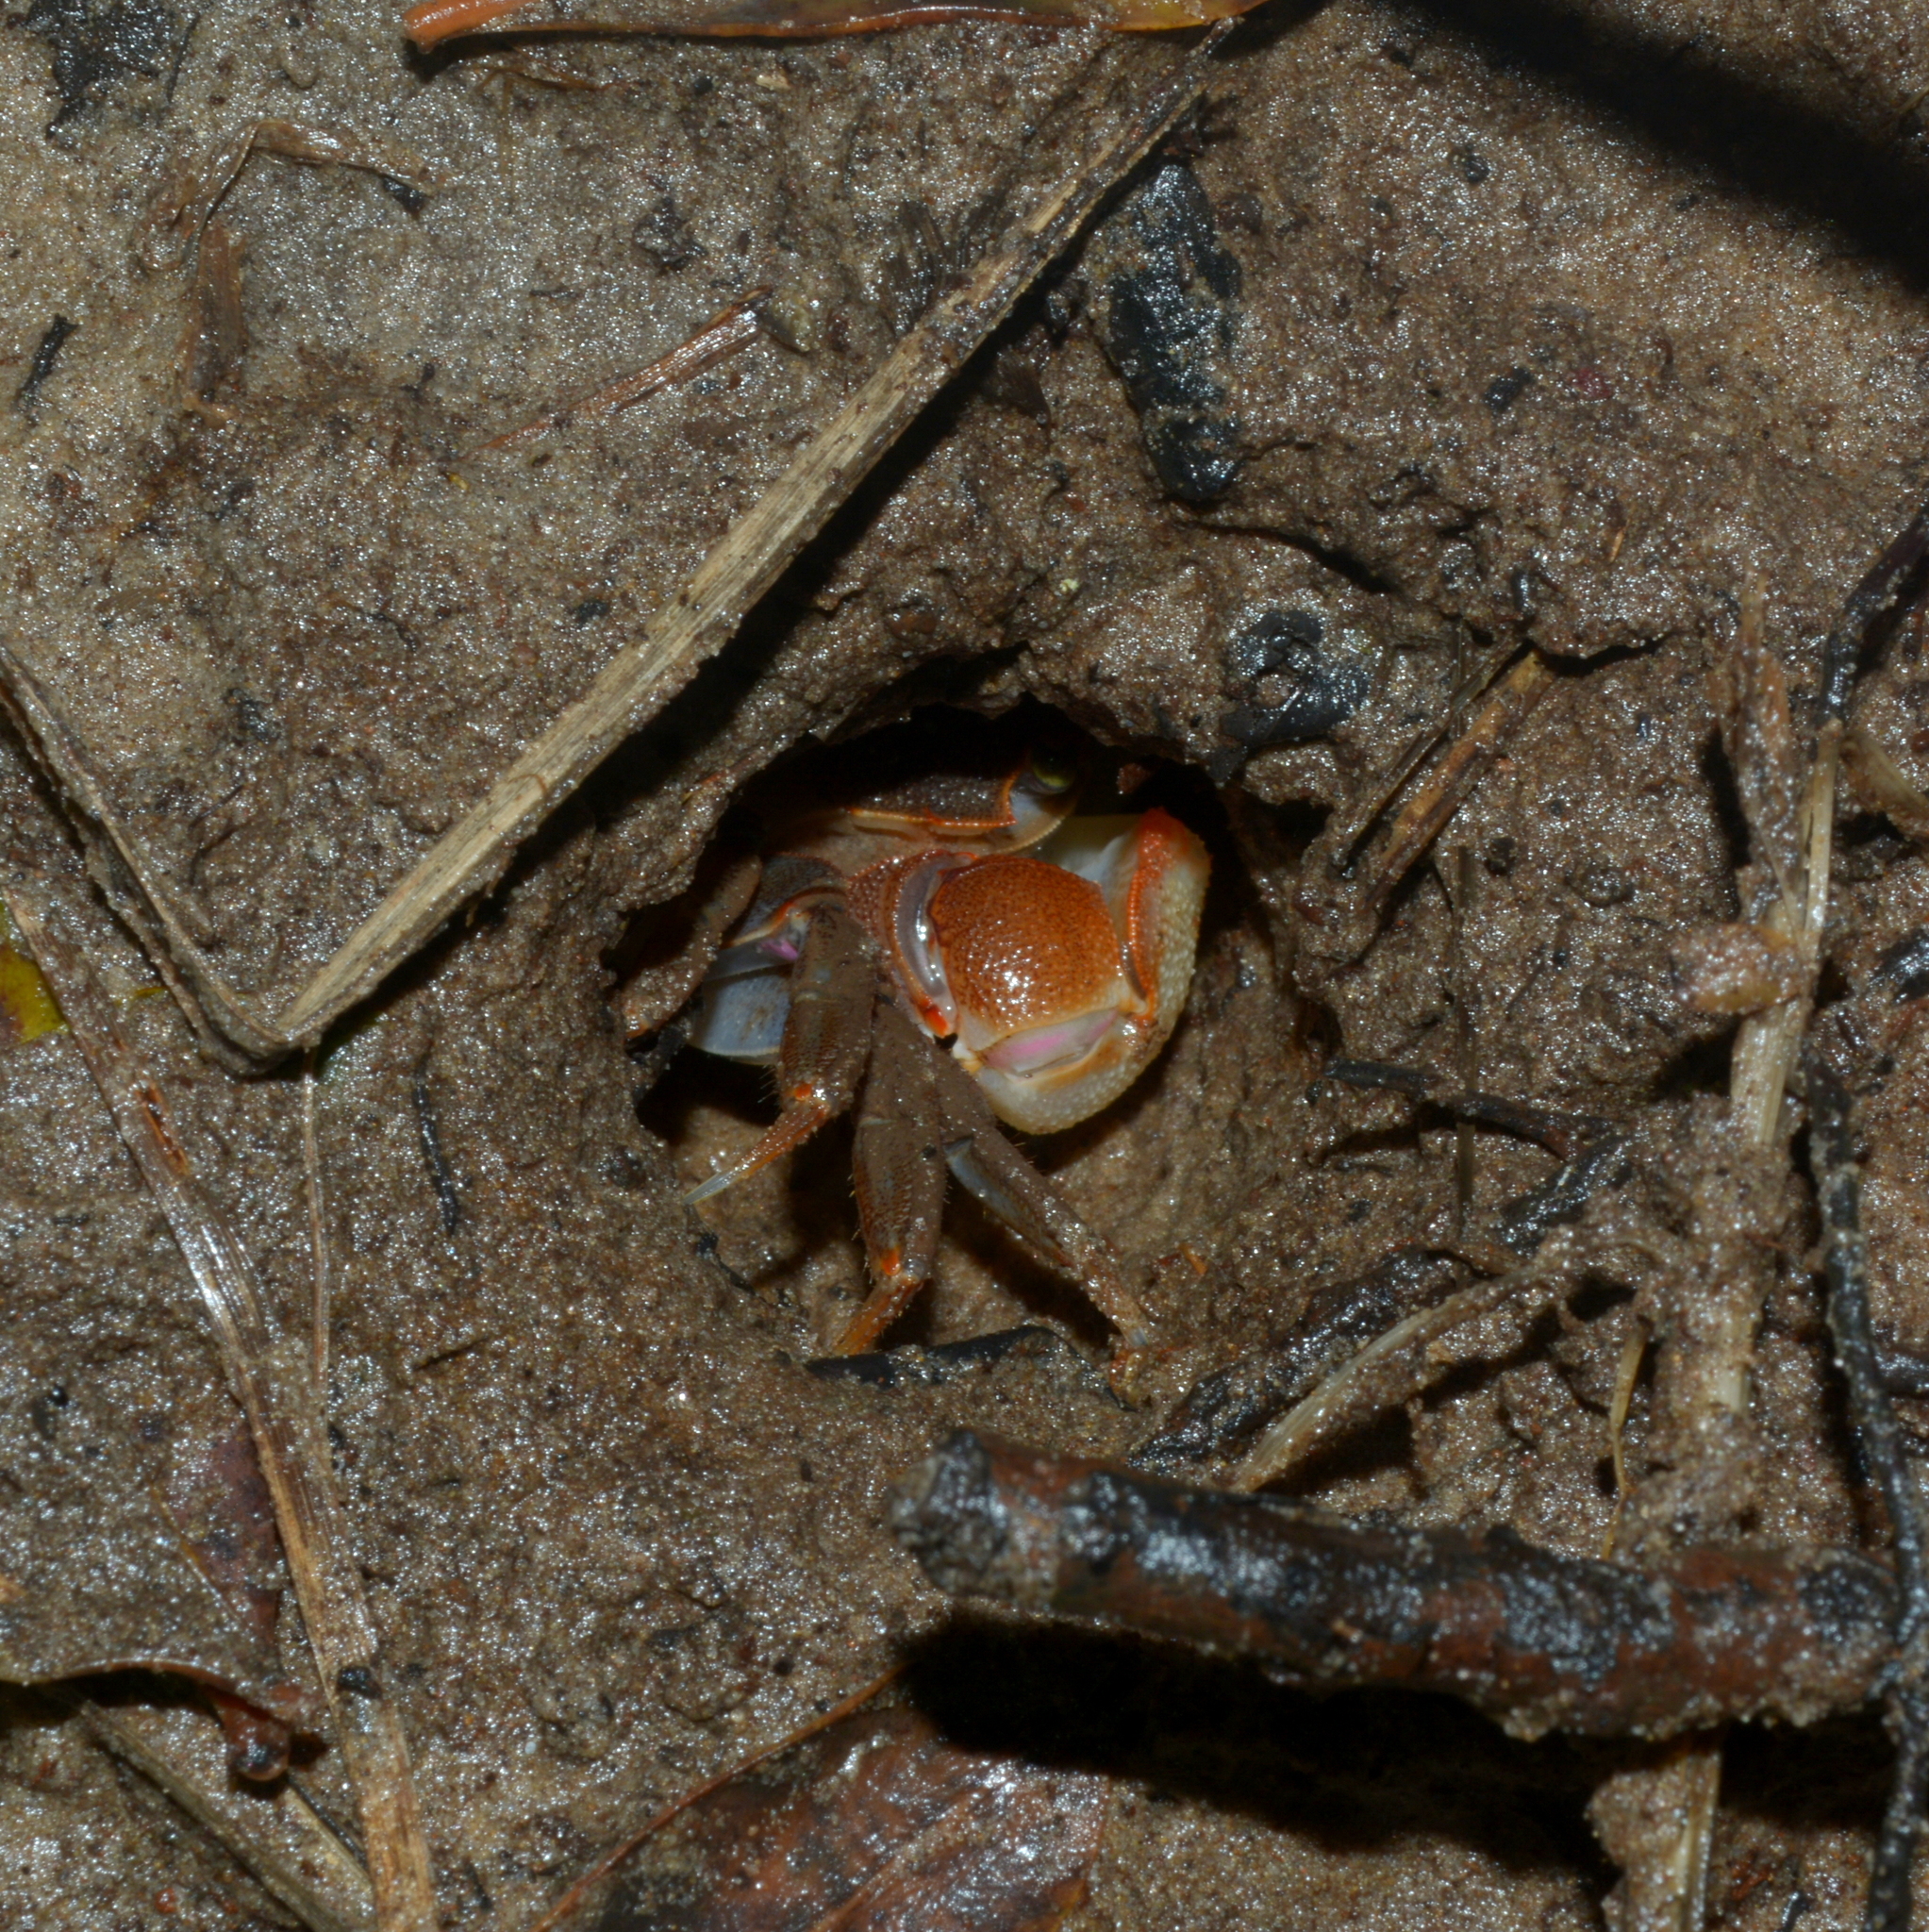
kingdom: Animalia
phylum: Arthropoda
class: Malacostraca
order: Decapoda
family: Varunidae
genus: Neohelice
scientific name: Neohelice granulata
